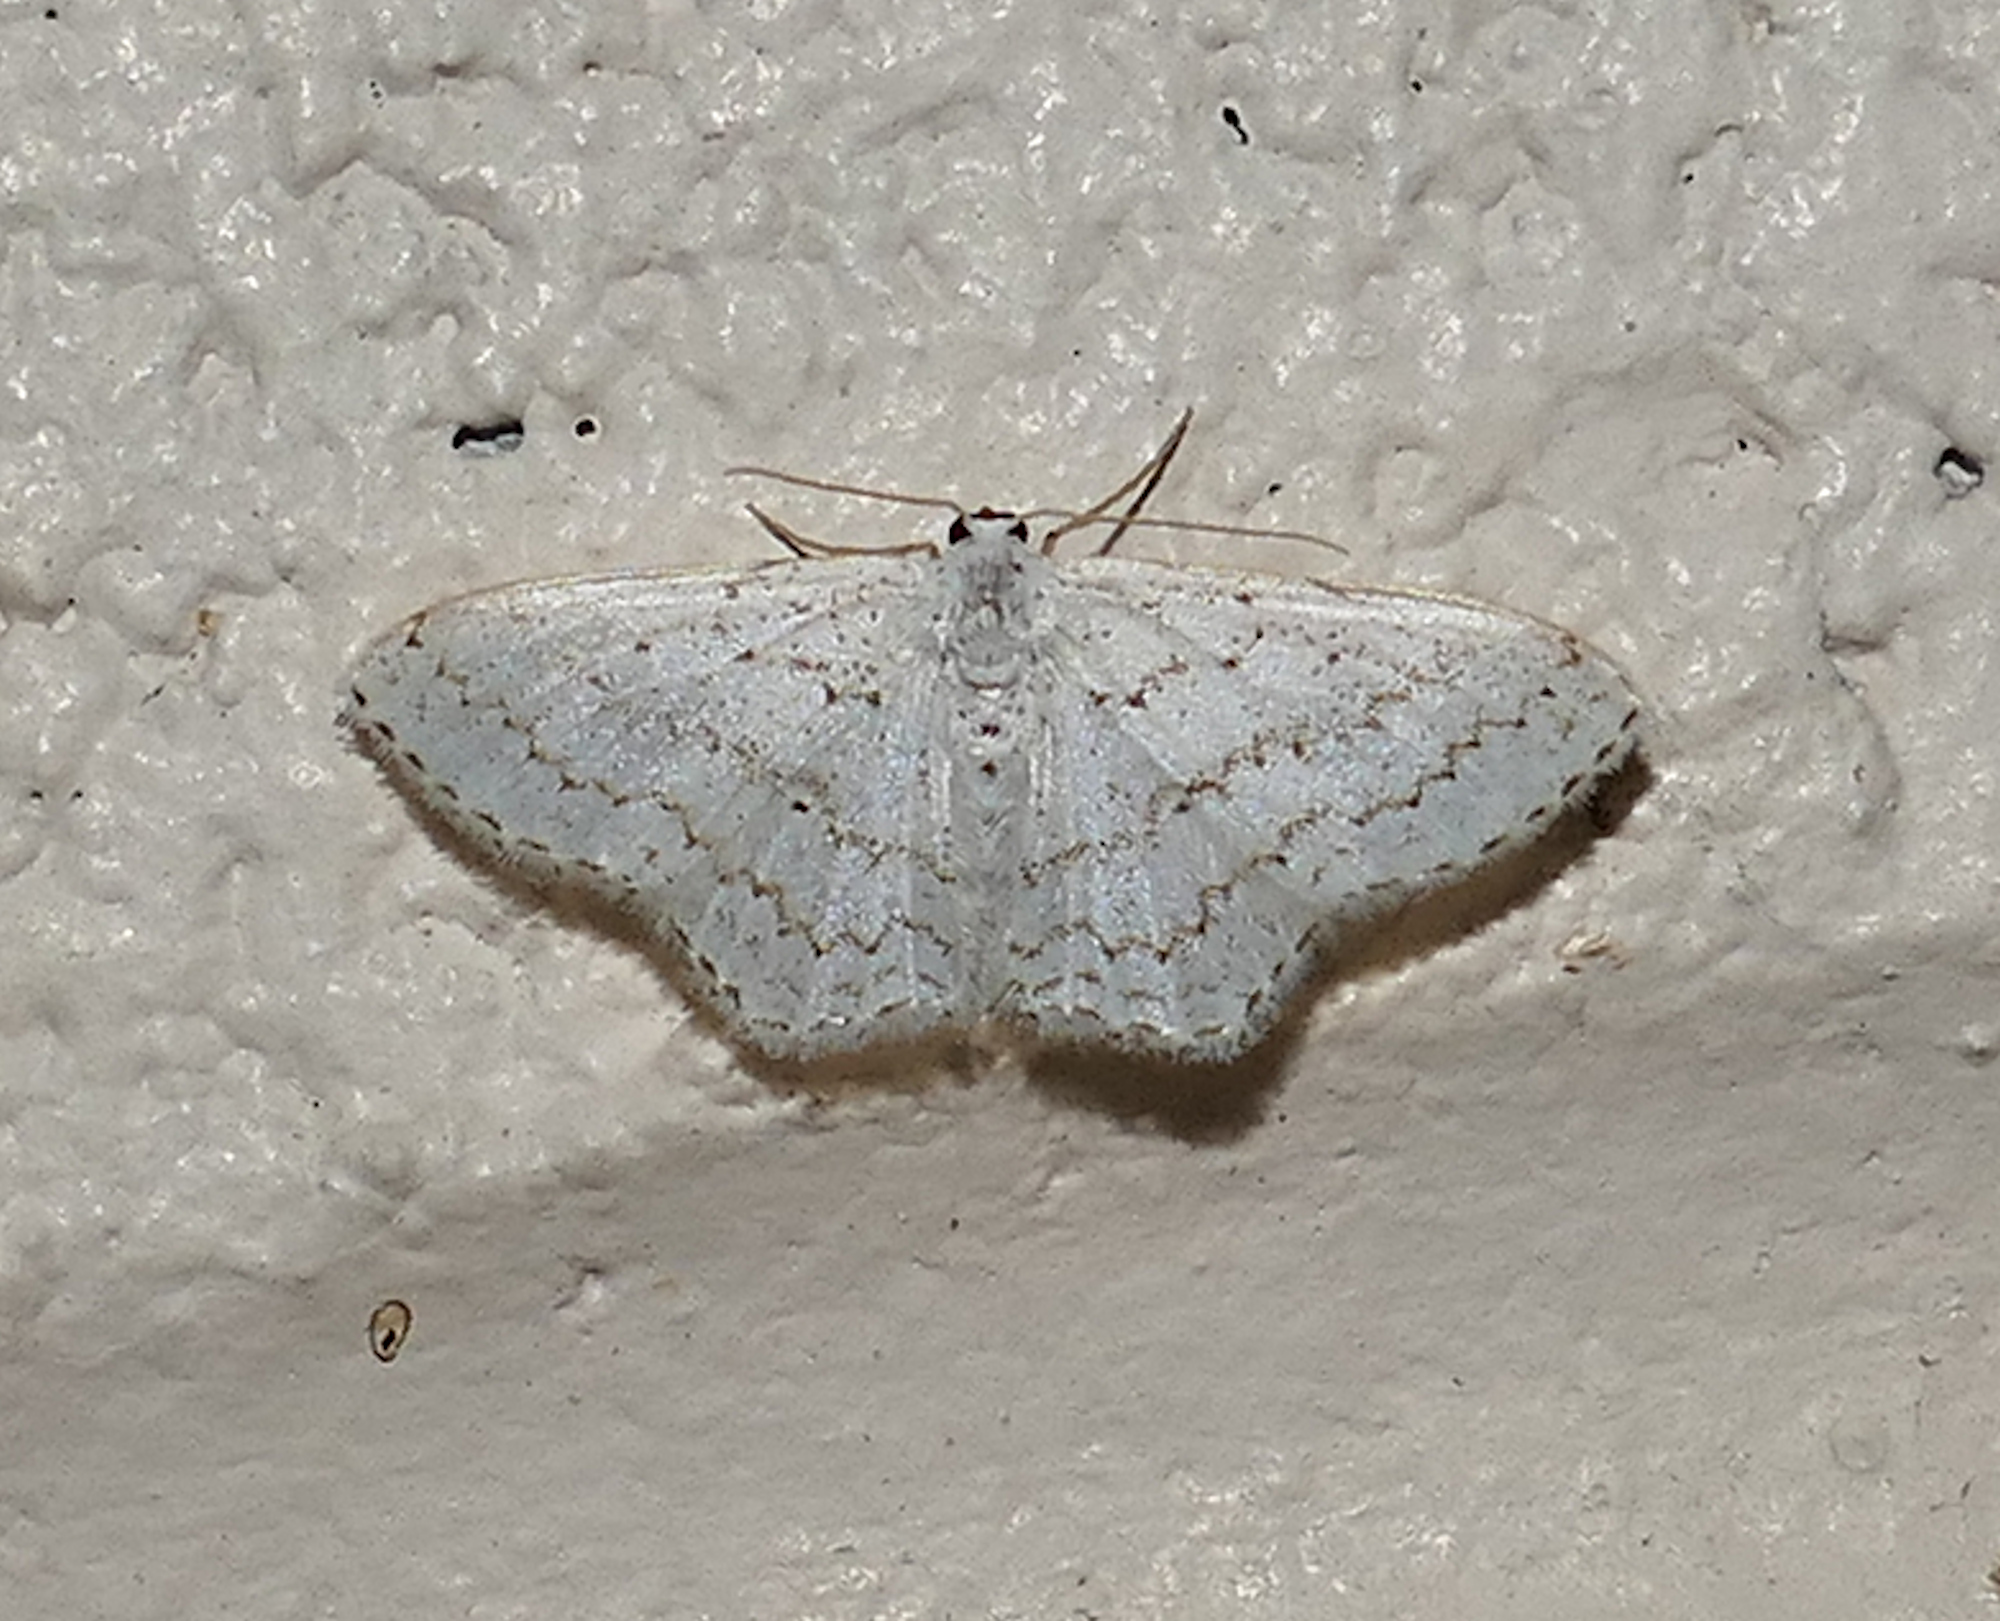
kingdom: Animalia
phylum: Arthropoda
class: Insecta
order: Lepidoptera
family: Geometridae
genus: Idaea
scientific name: Idaea tacturata
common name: Dot-lined wave
